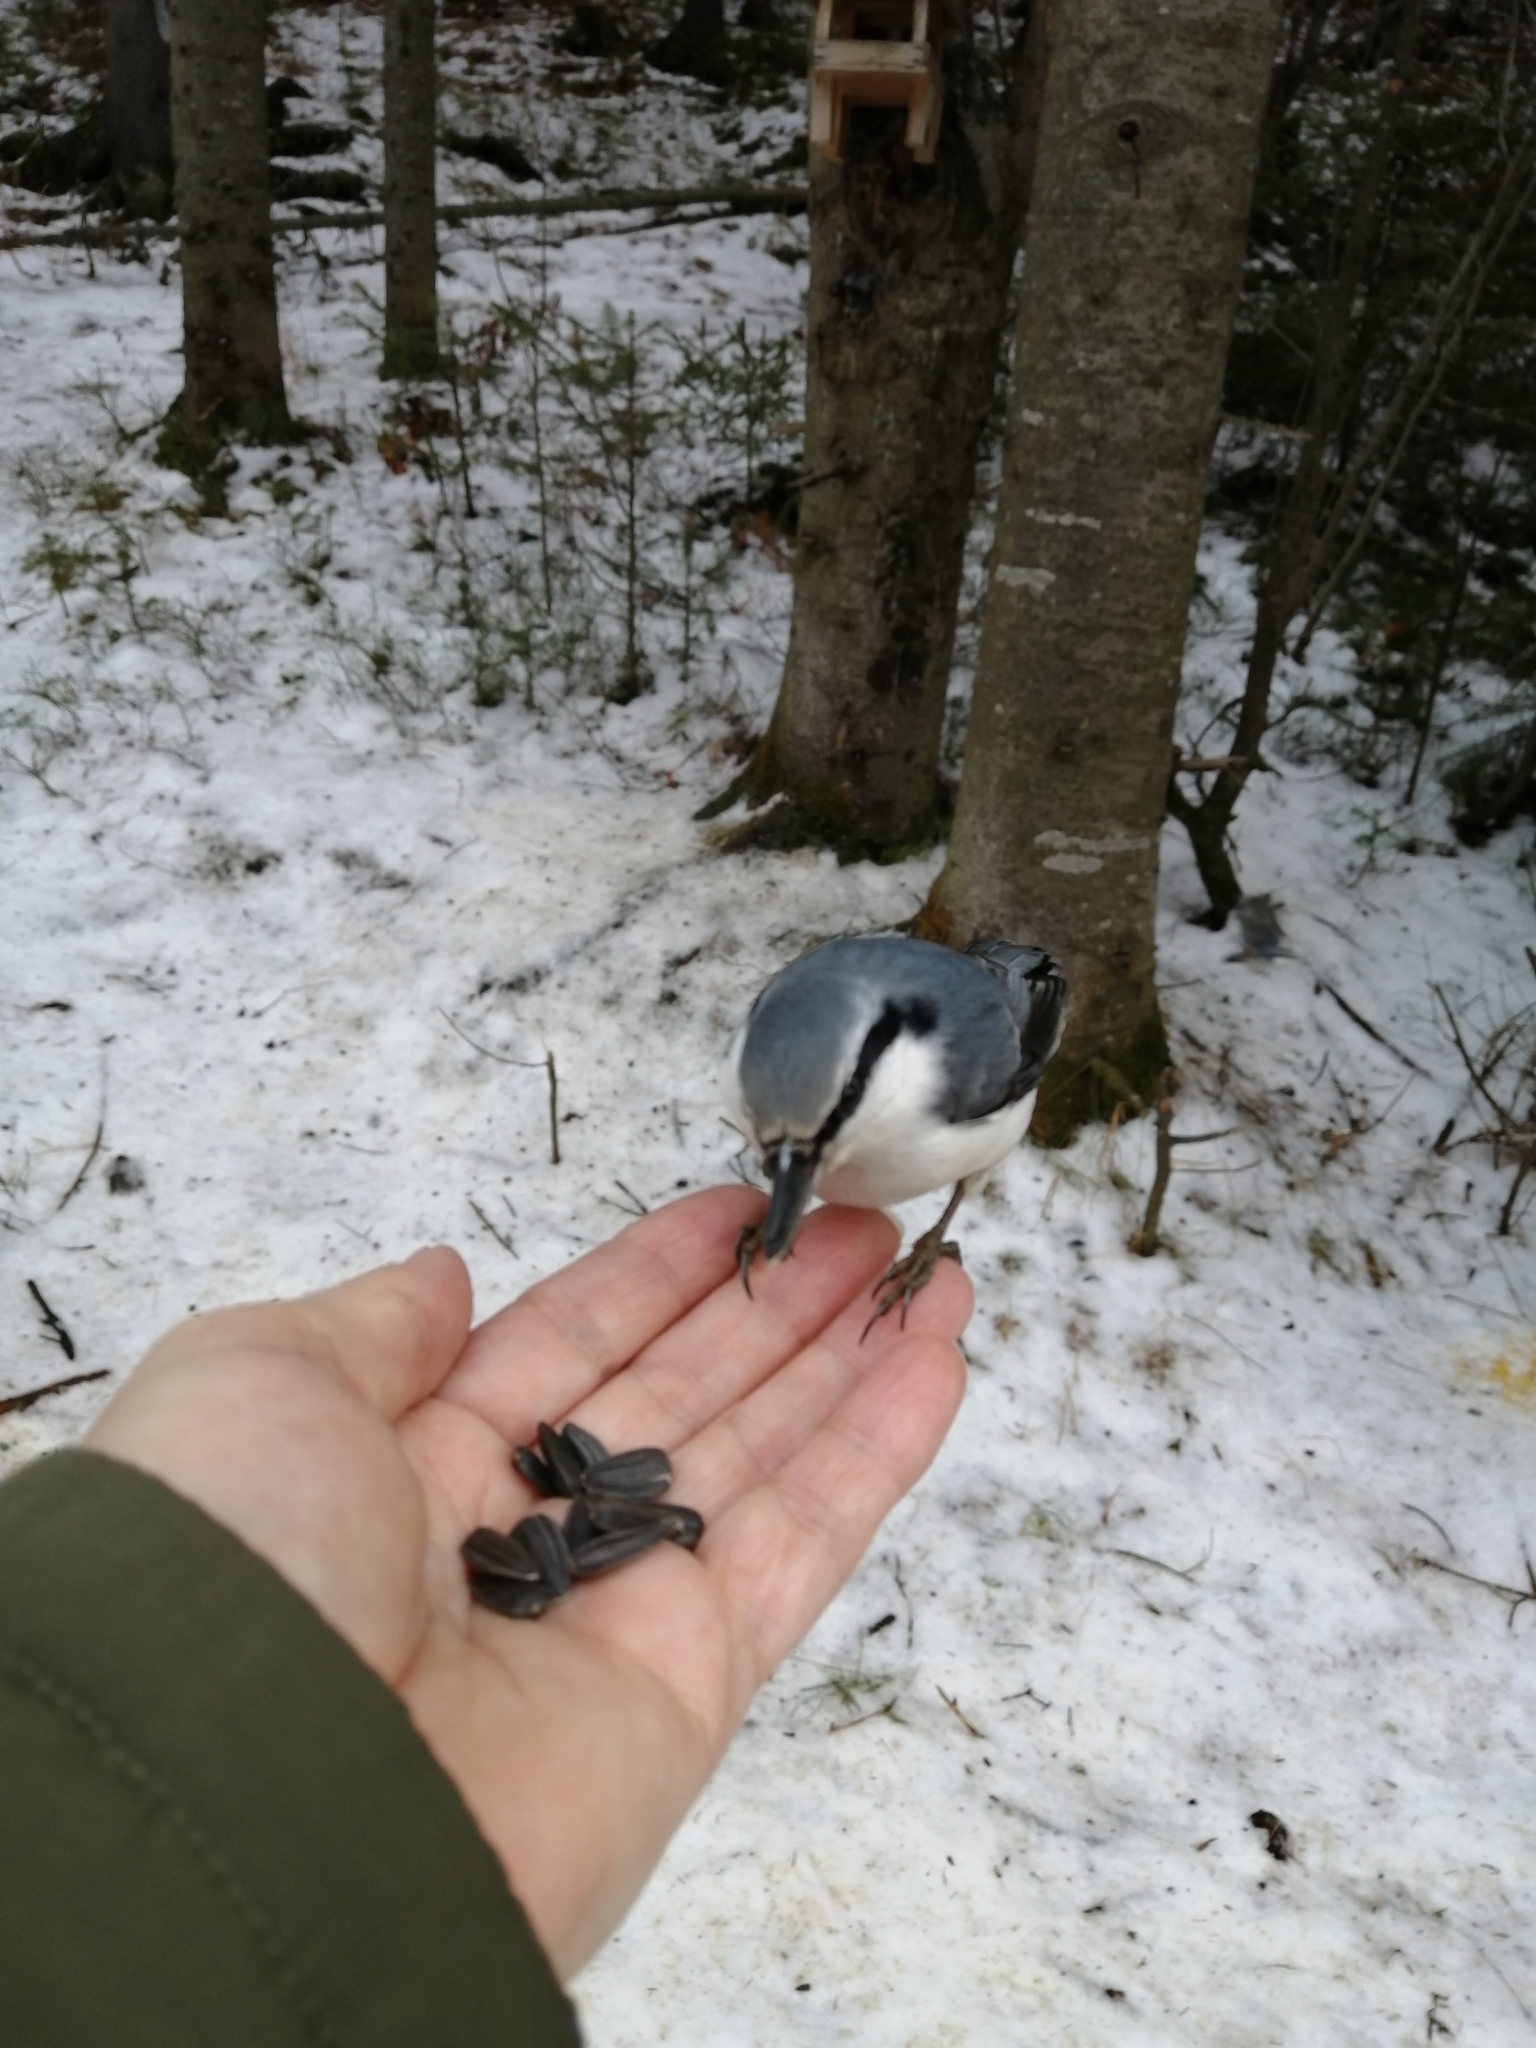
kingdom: Animalia
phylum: Chordata
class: Aves
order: Passeriformes
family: Sittidae
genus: Sitta
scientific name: Sitta europaea
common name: Eurasian nuthatch
